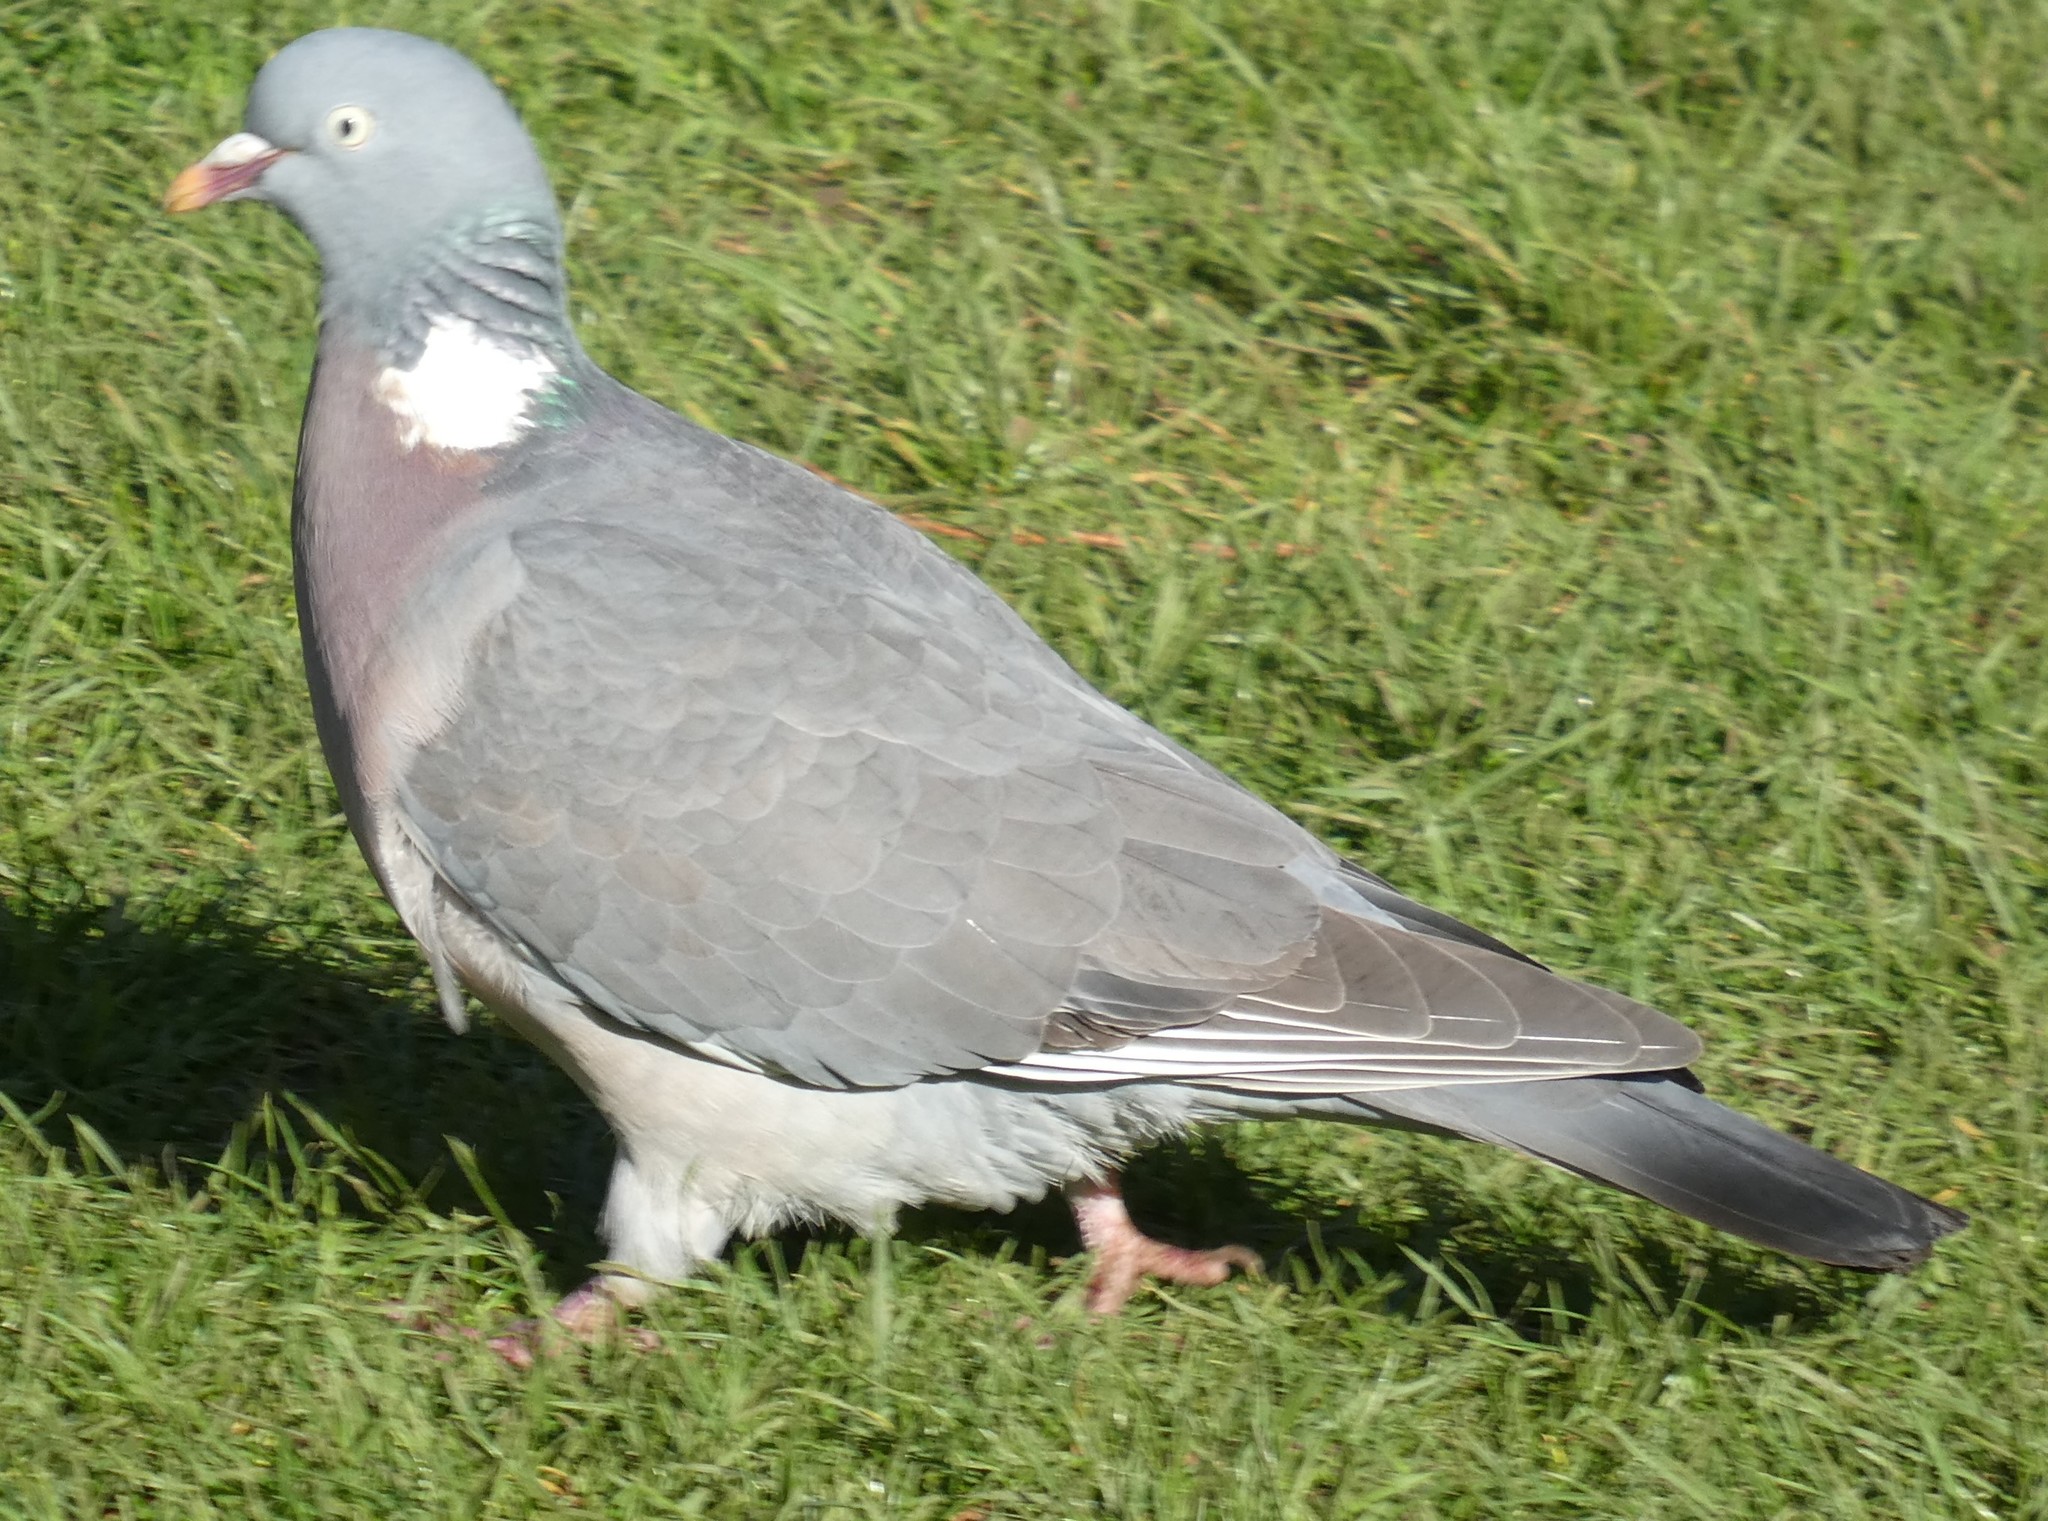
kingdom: Animalia
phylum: Chordata
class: Aves
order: Columbiformes
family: Columbidae
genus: Columba
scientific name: Columba palumbus
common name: Common wood pigeon
